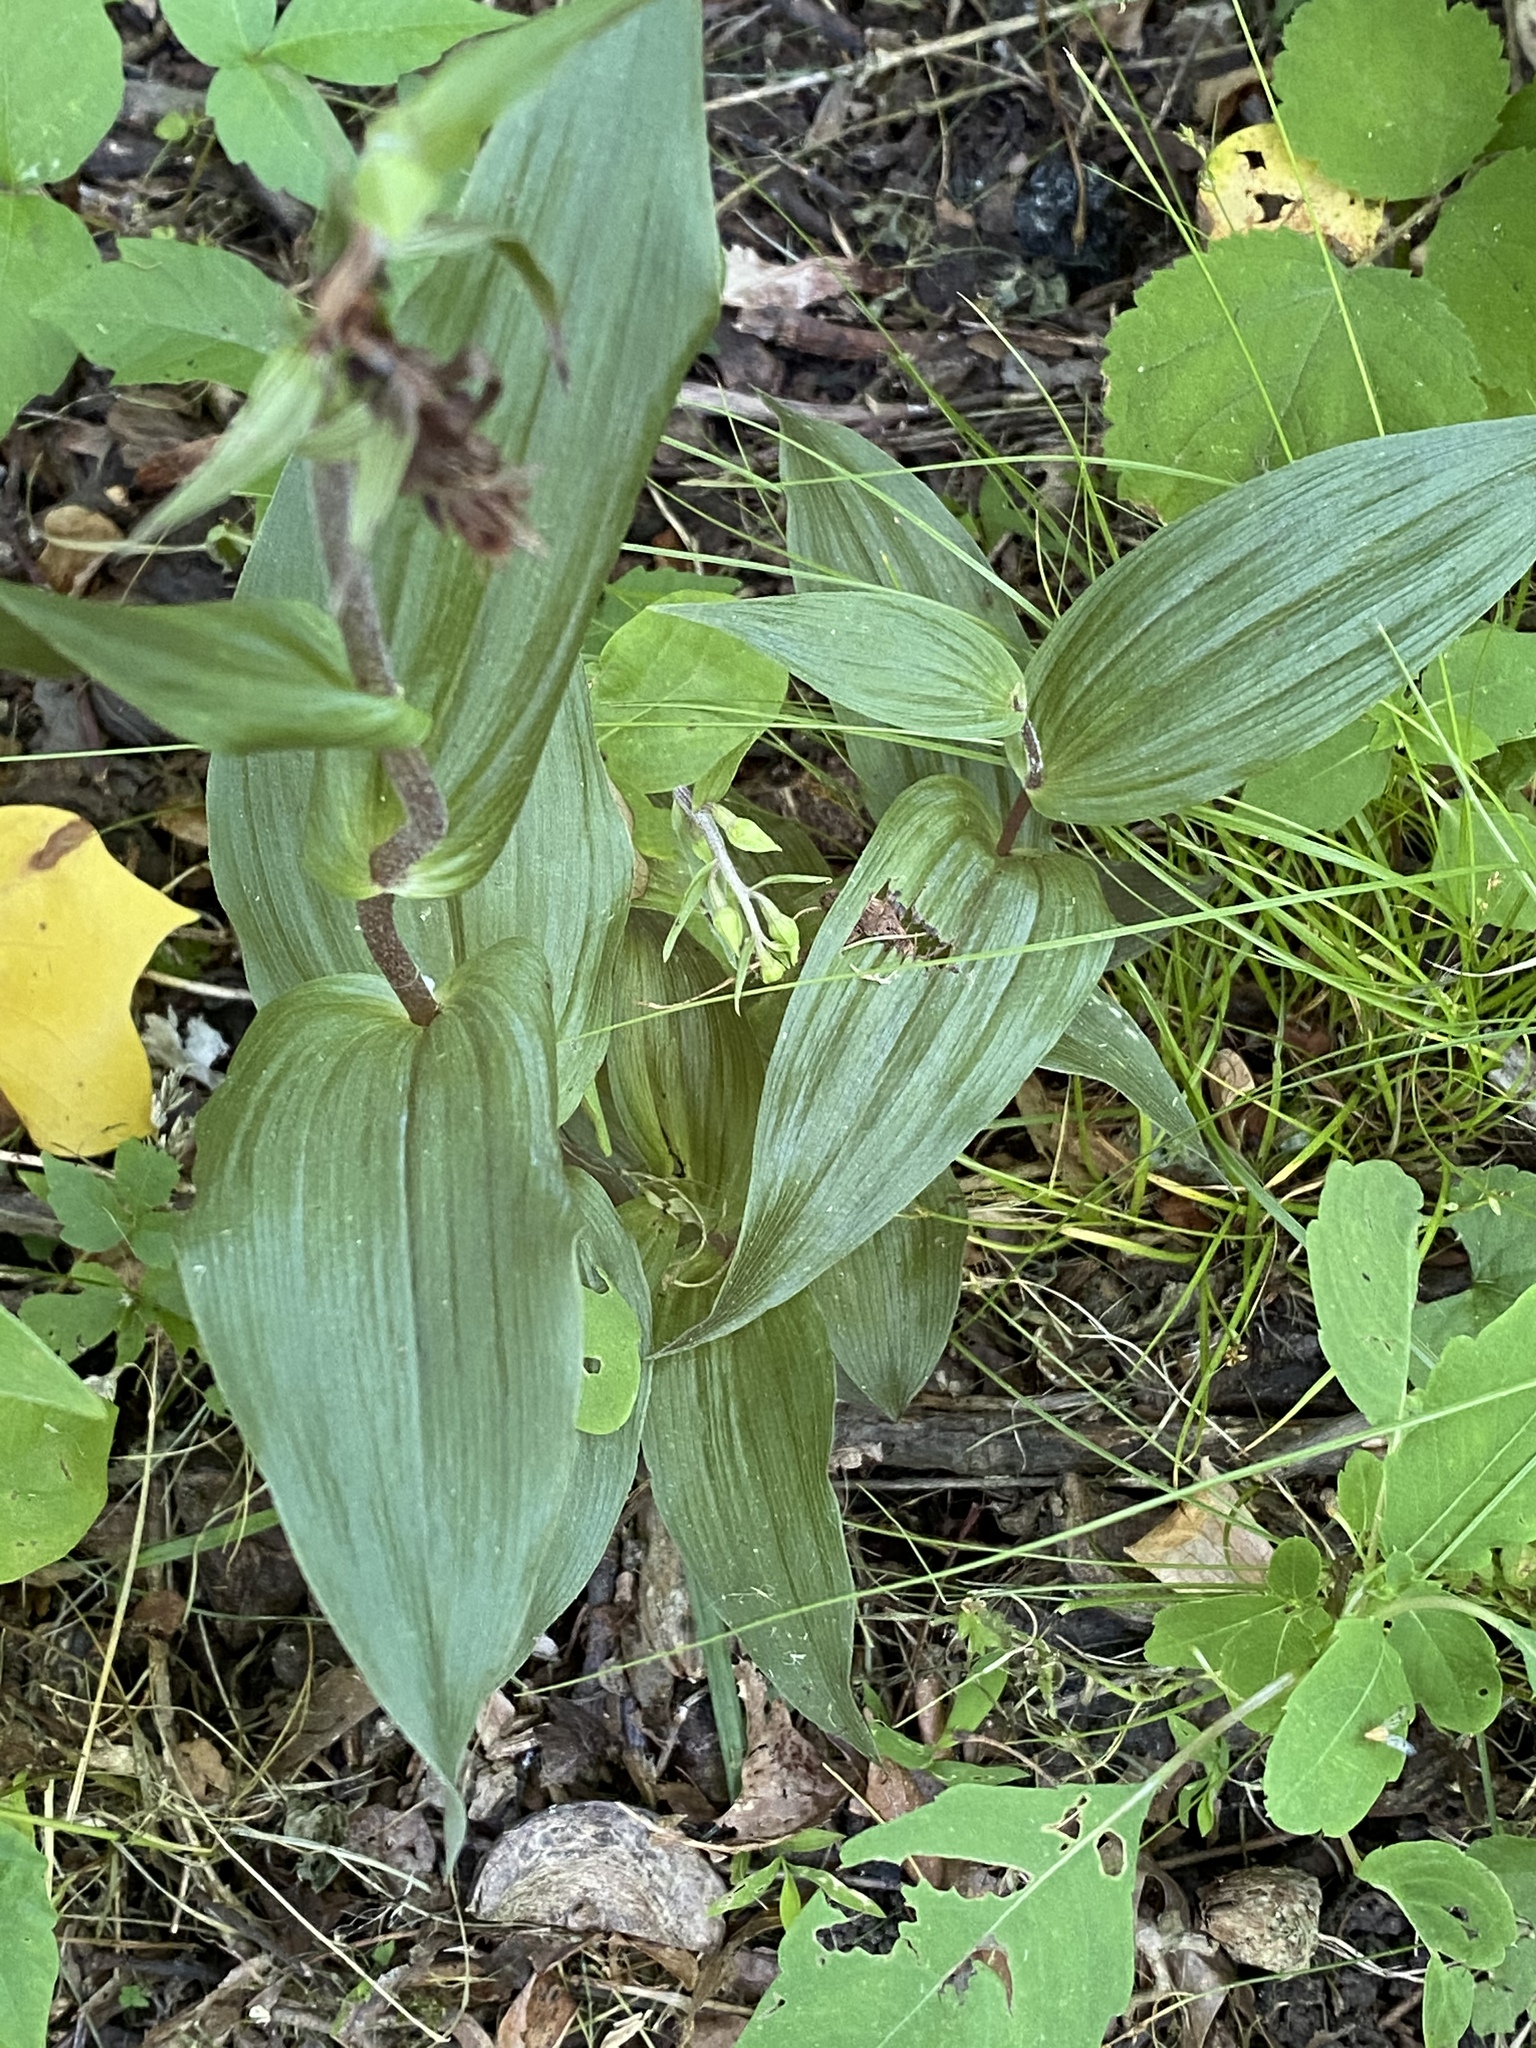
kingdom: Plantae
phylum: Tracheophyta
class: Liliopsida
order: Asparagales
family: Orchidaceae
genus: Epipactis
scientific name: Epipactis helleborine
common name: Broad-leaved helleborine
